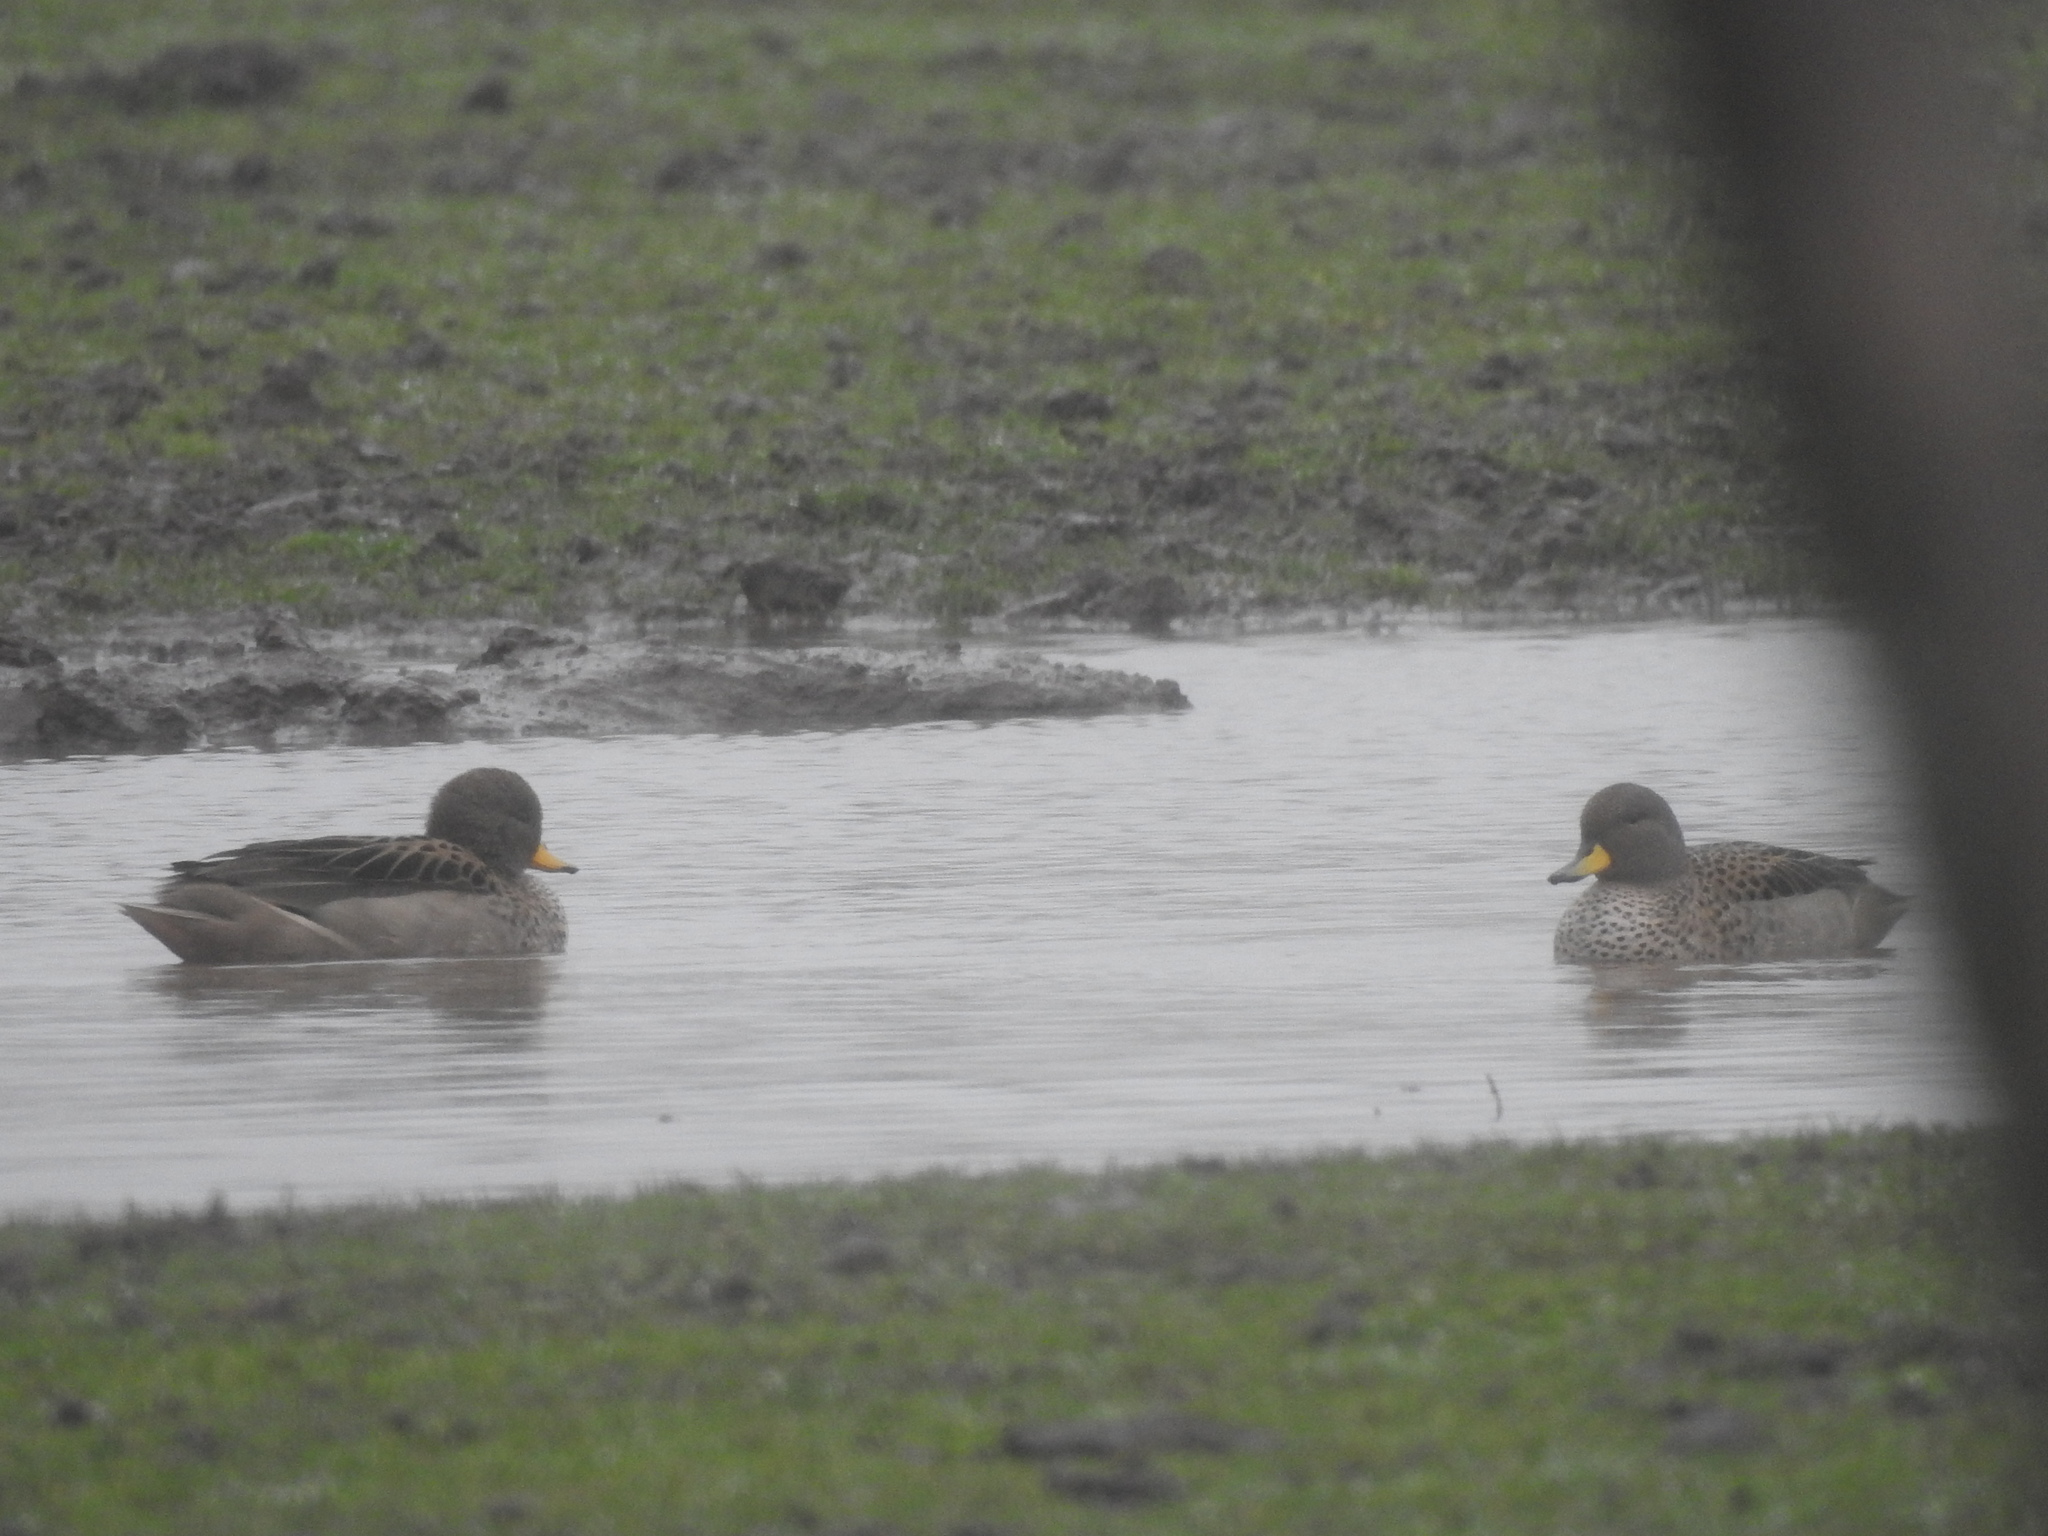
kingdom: Animalia
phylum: Chordata
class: Aves
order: Anseriformes
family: Anatidae
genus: Anas
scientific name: Anas flavirostris
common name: Yellow-billed teal
